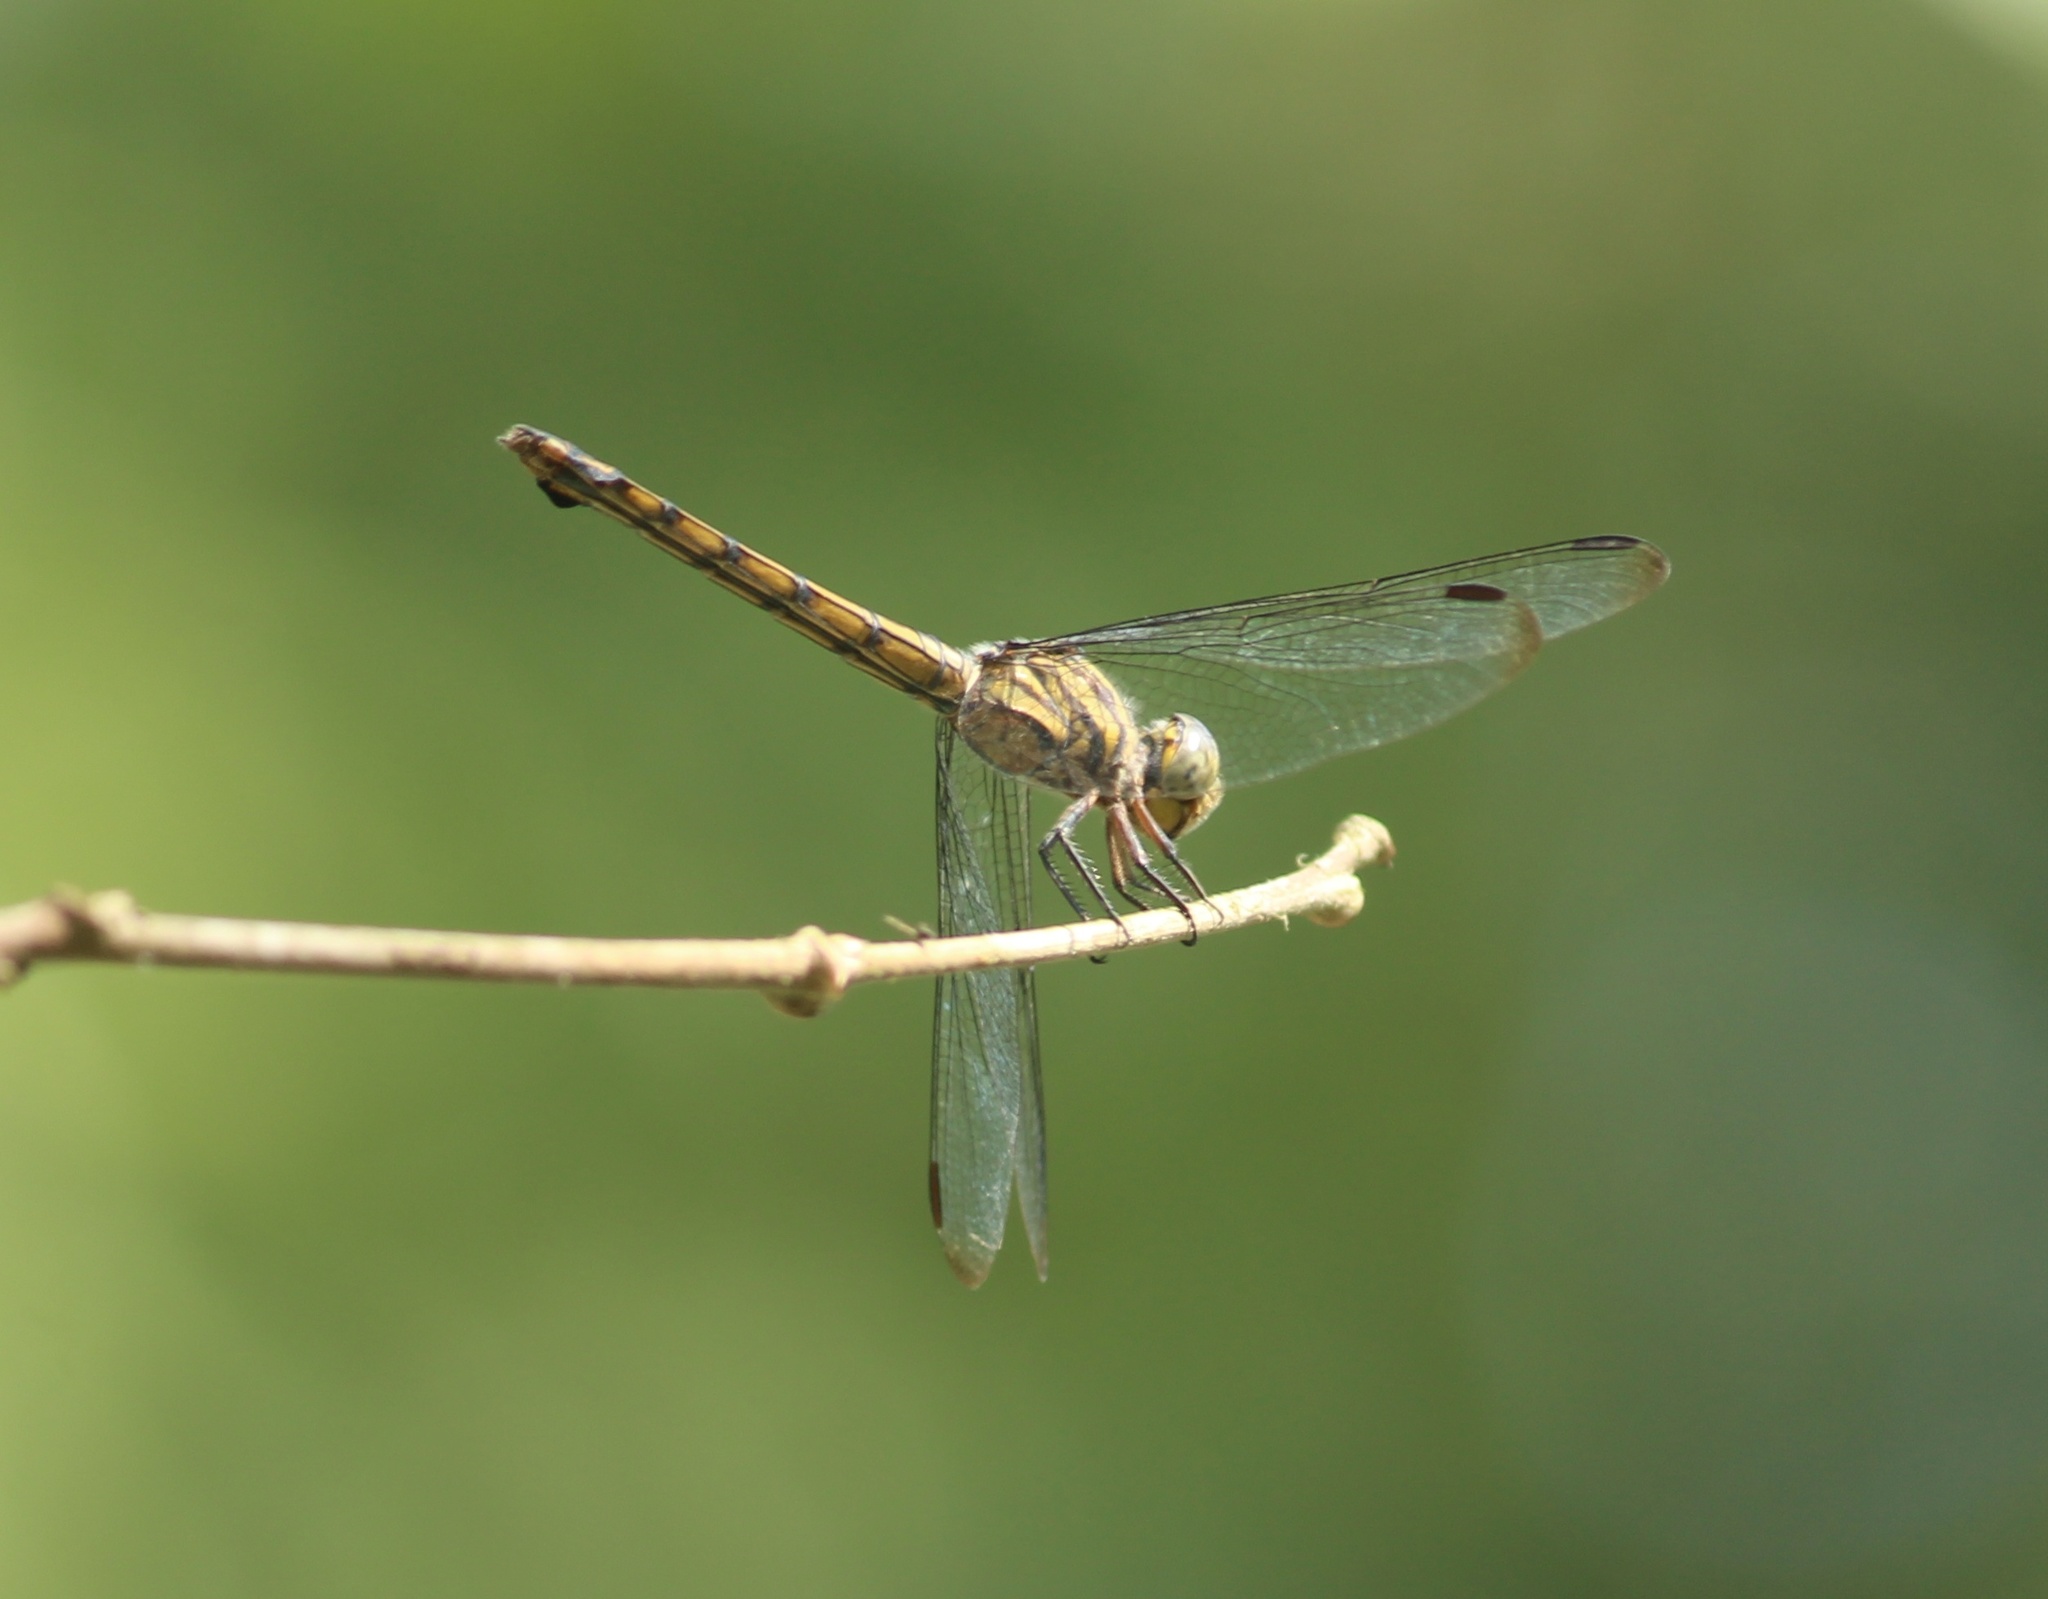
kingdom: Animalia
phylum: Arthropoda
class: Insecta
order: Odonata
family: Libellulidae
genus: Potamarcha
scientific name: Potamarcha congener
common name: Blue chaser
